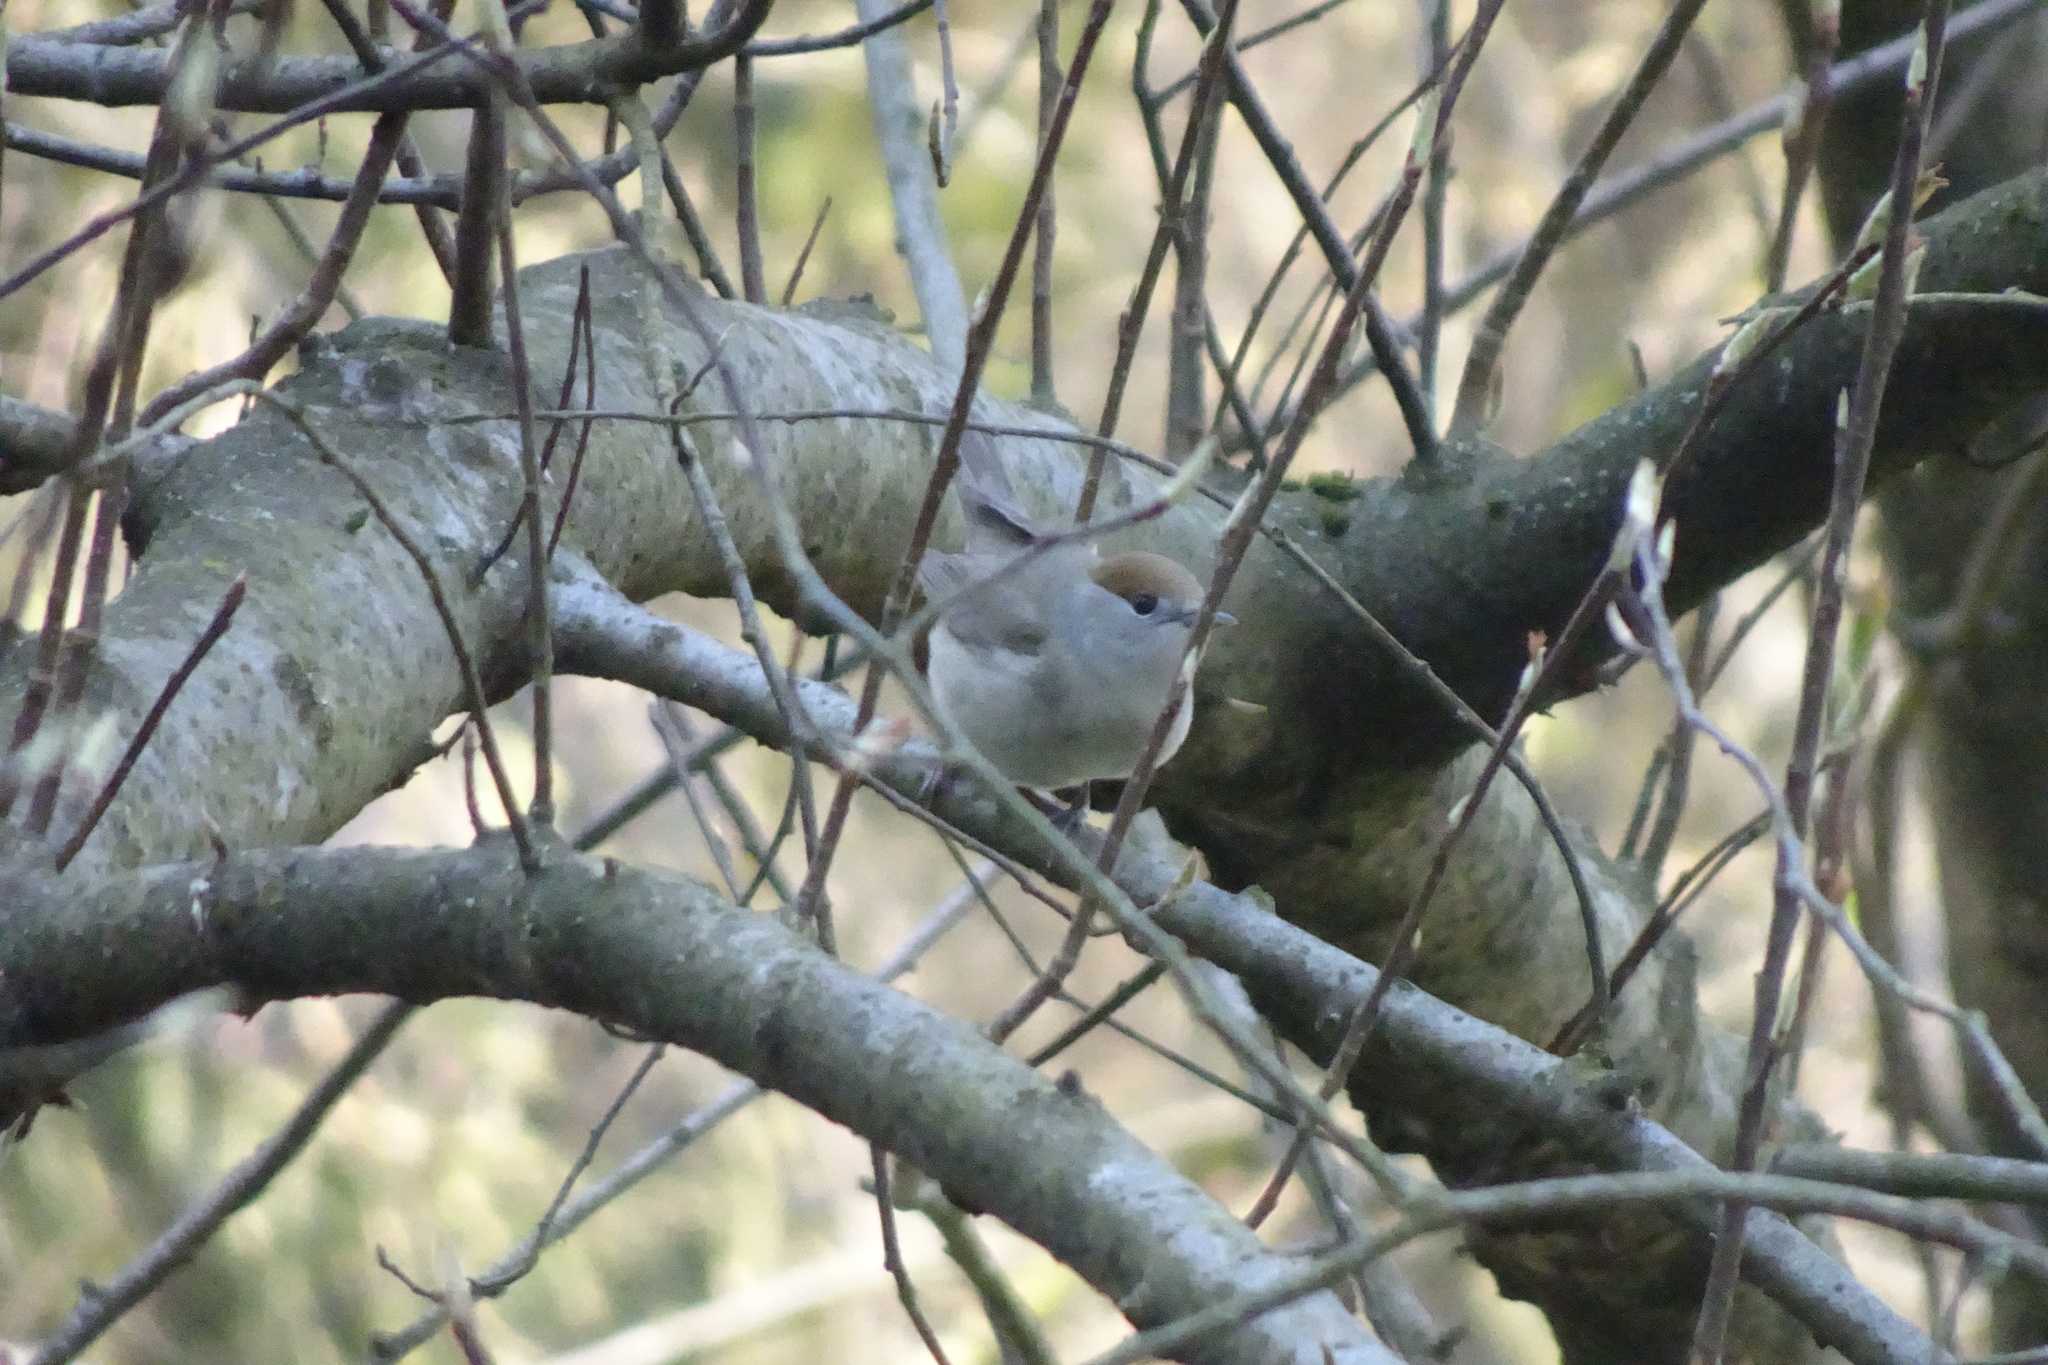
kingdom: Animalia
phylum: Chordata
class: Aves
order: Passeriformes
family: Sylviidae
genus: Sylvia
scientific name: Sylvia atricapilla
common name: Eurasian blackcap
